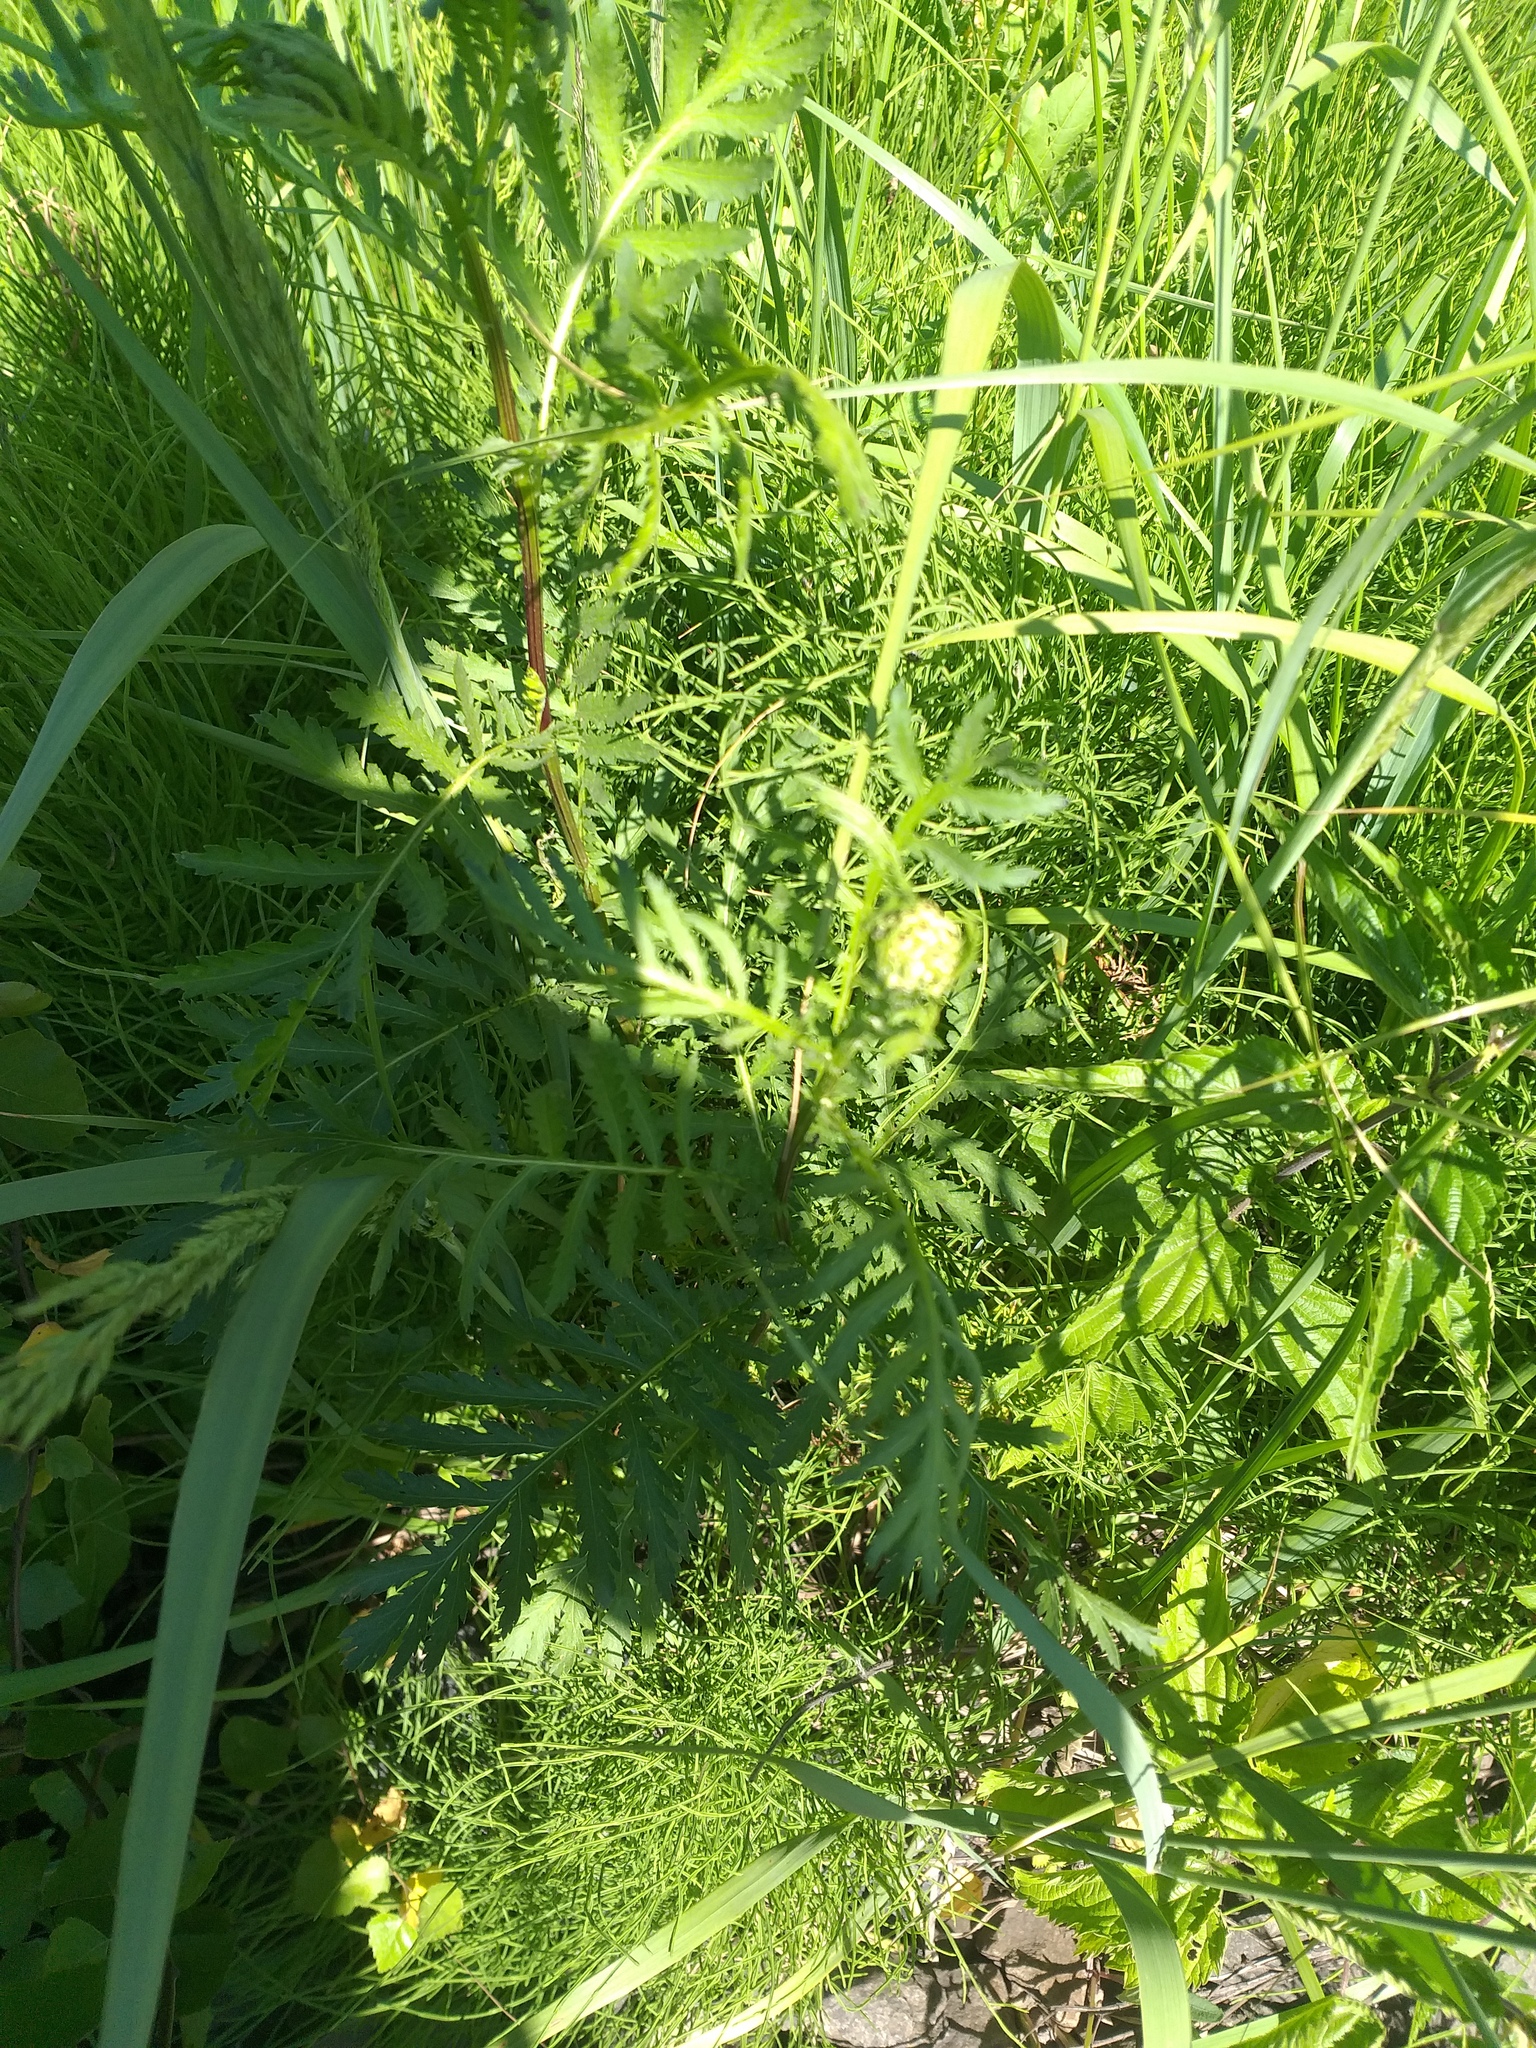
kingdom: Plantae
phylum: Tracheophyta
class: Magnoliopsida
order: Asterales
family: Asteraceae
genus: Tanacetum
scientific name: Tanacetum vulgare
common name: Common tansy
